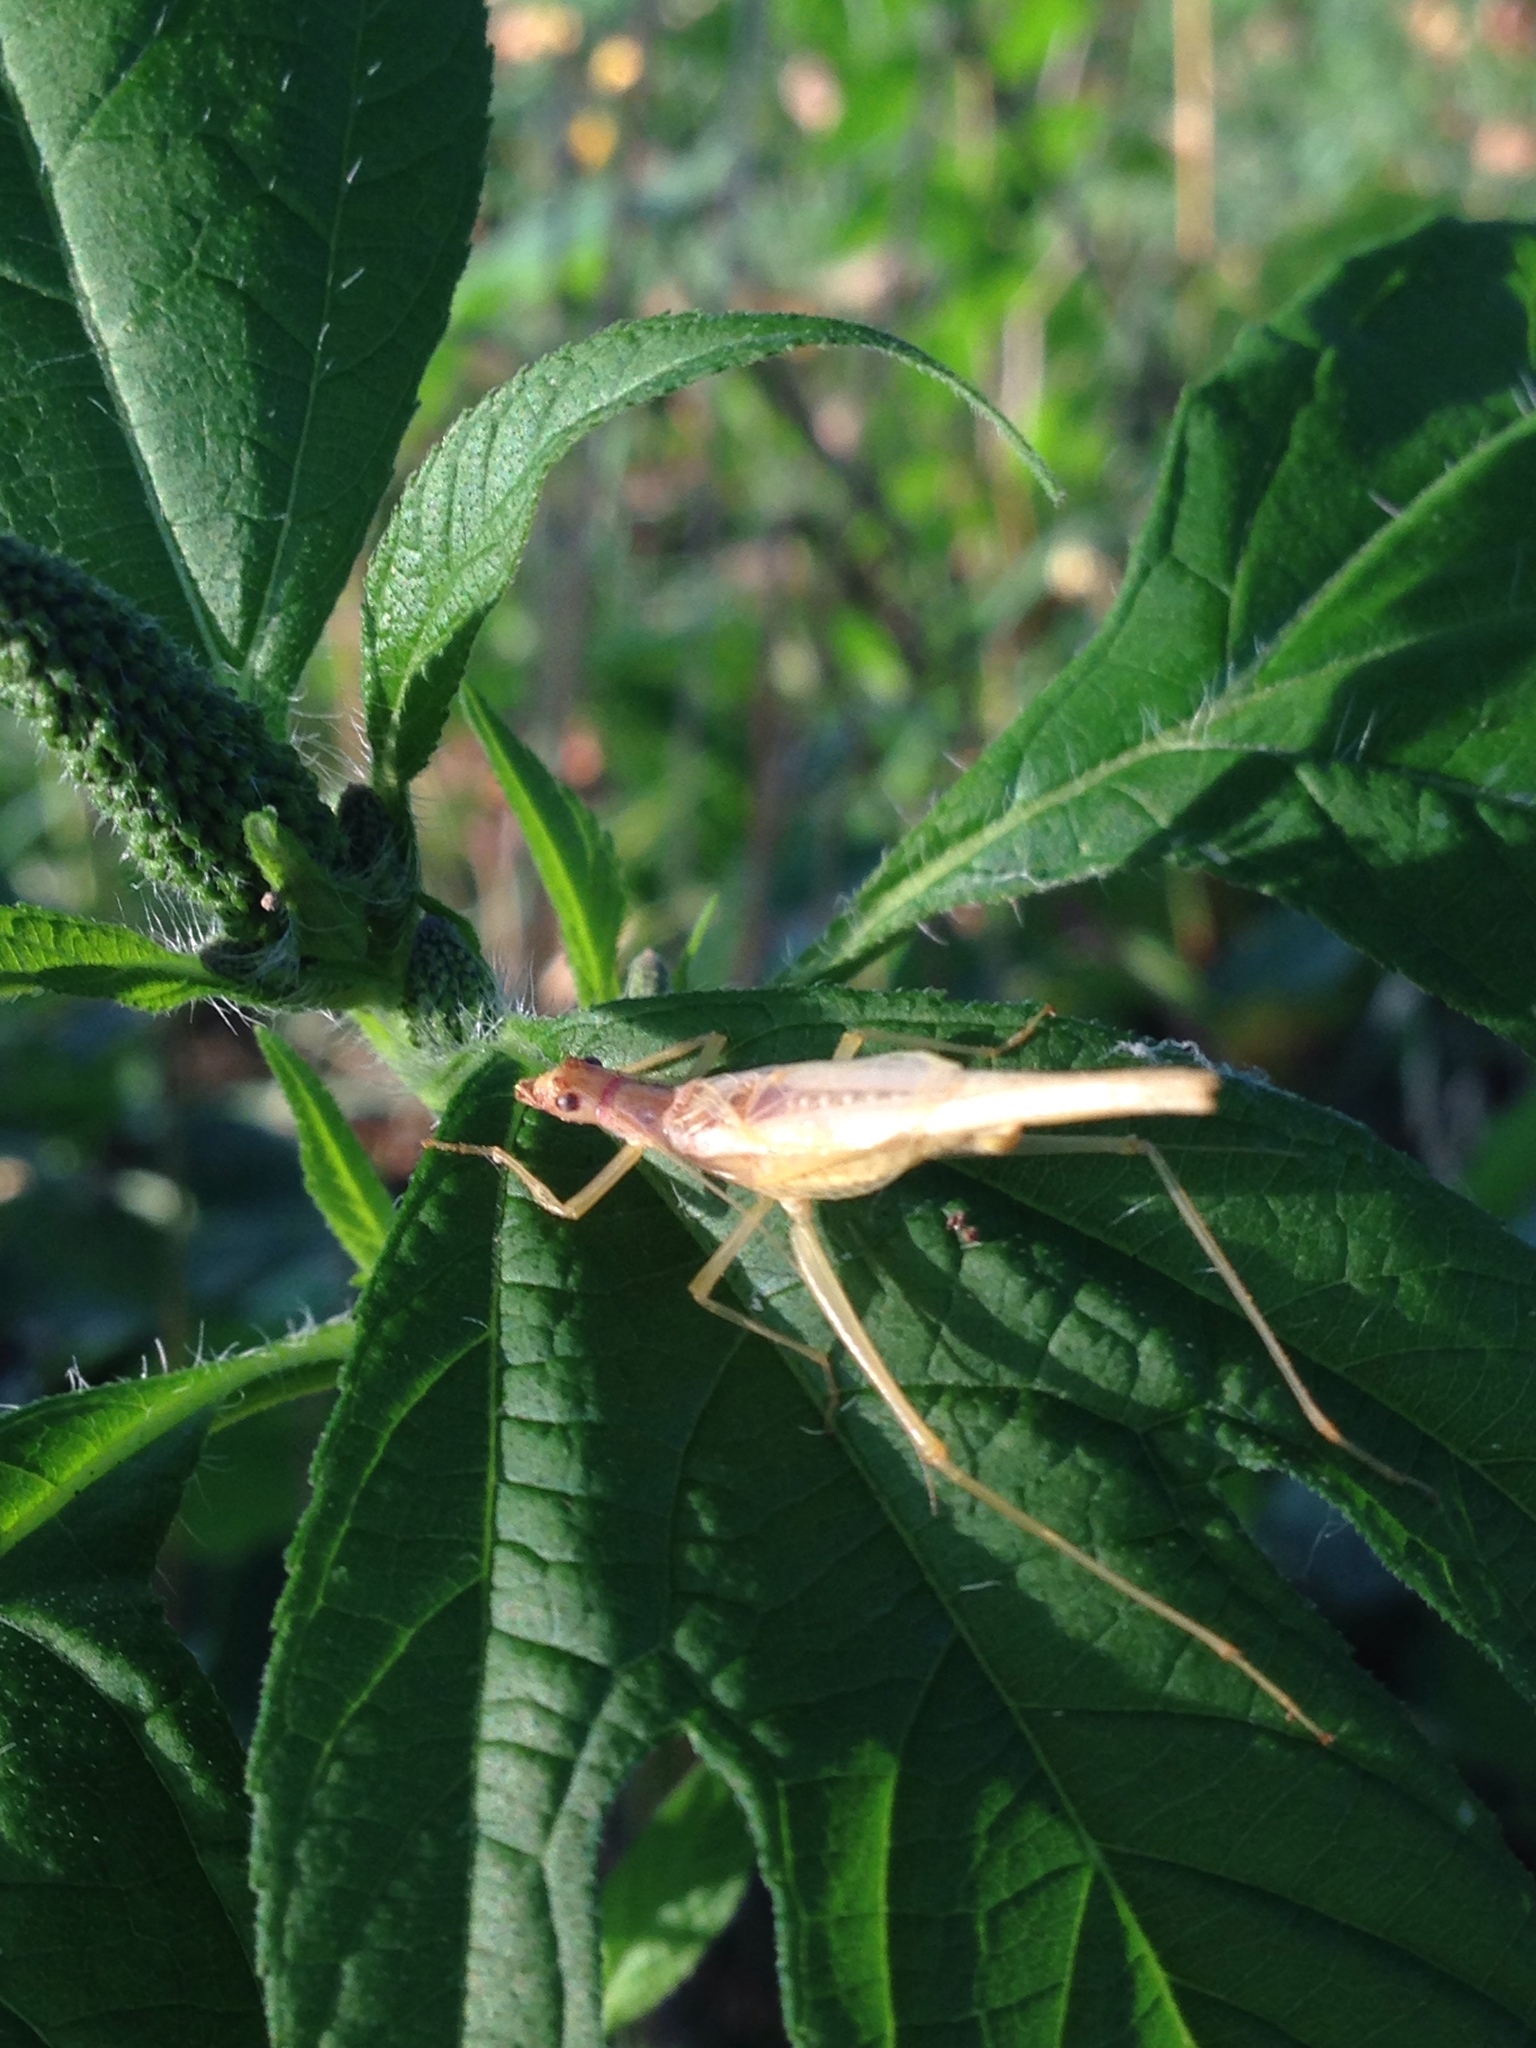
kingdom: Animalia
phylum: Arthropoda
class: Insecta
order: Orthoptera
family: Gryllidae
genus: Neoxabea
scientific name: Neoxabea bipunctata
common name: Two-spotted tree cricket
